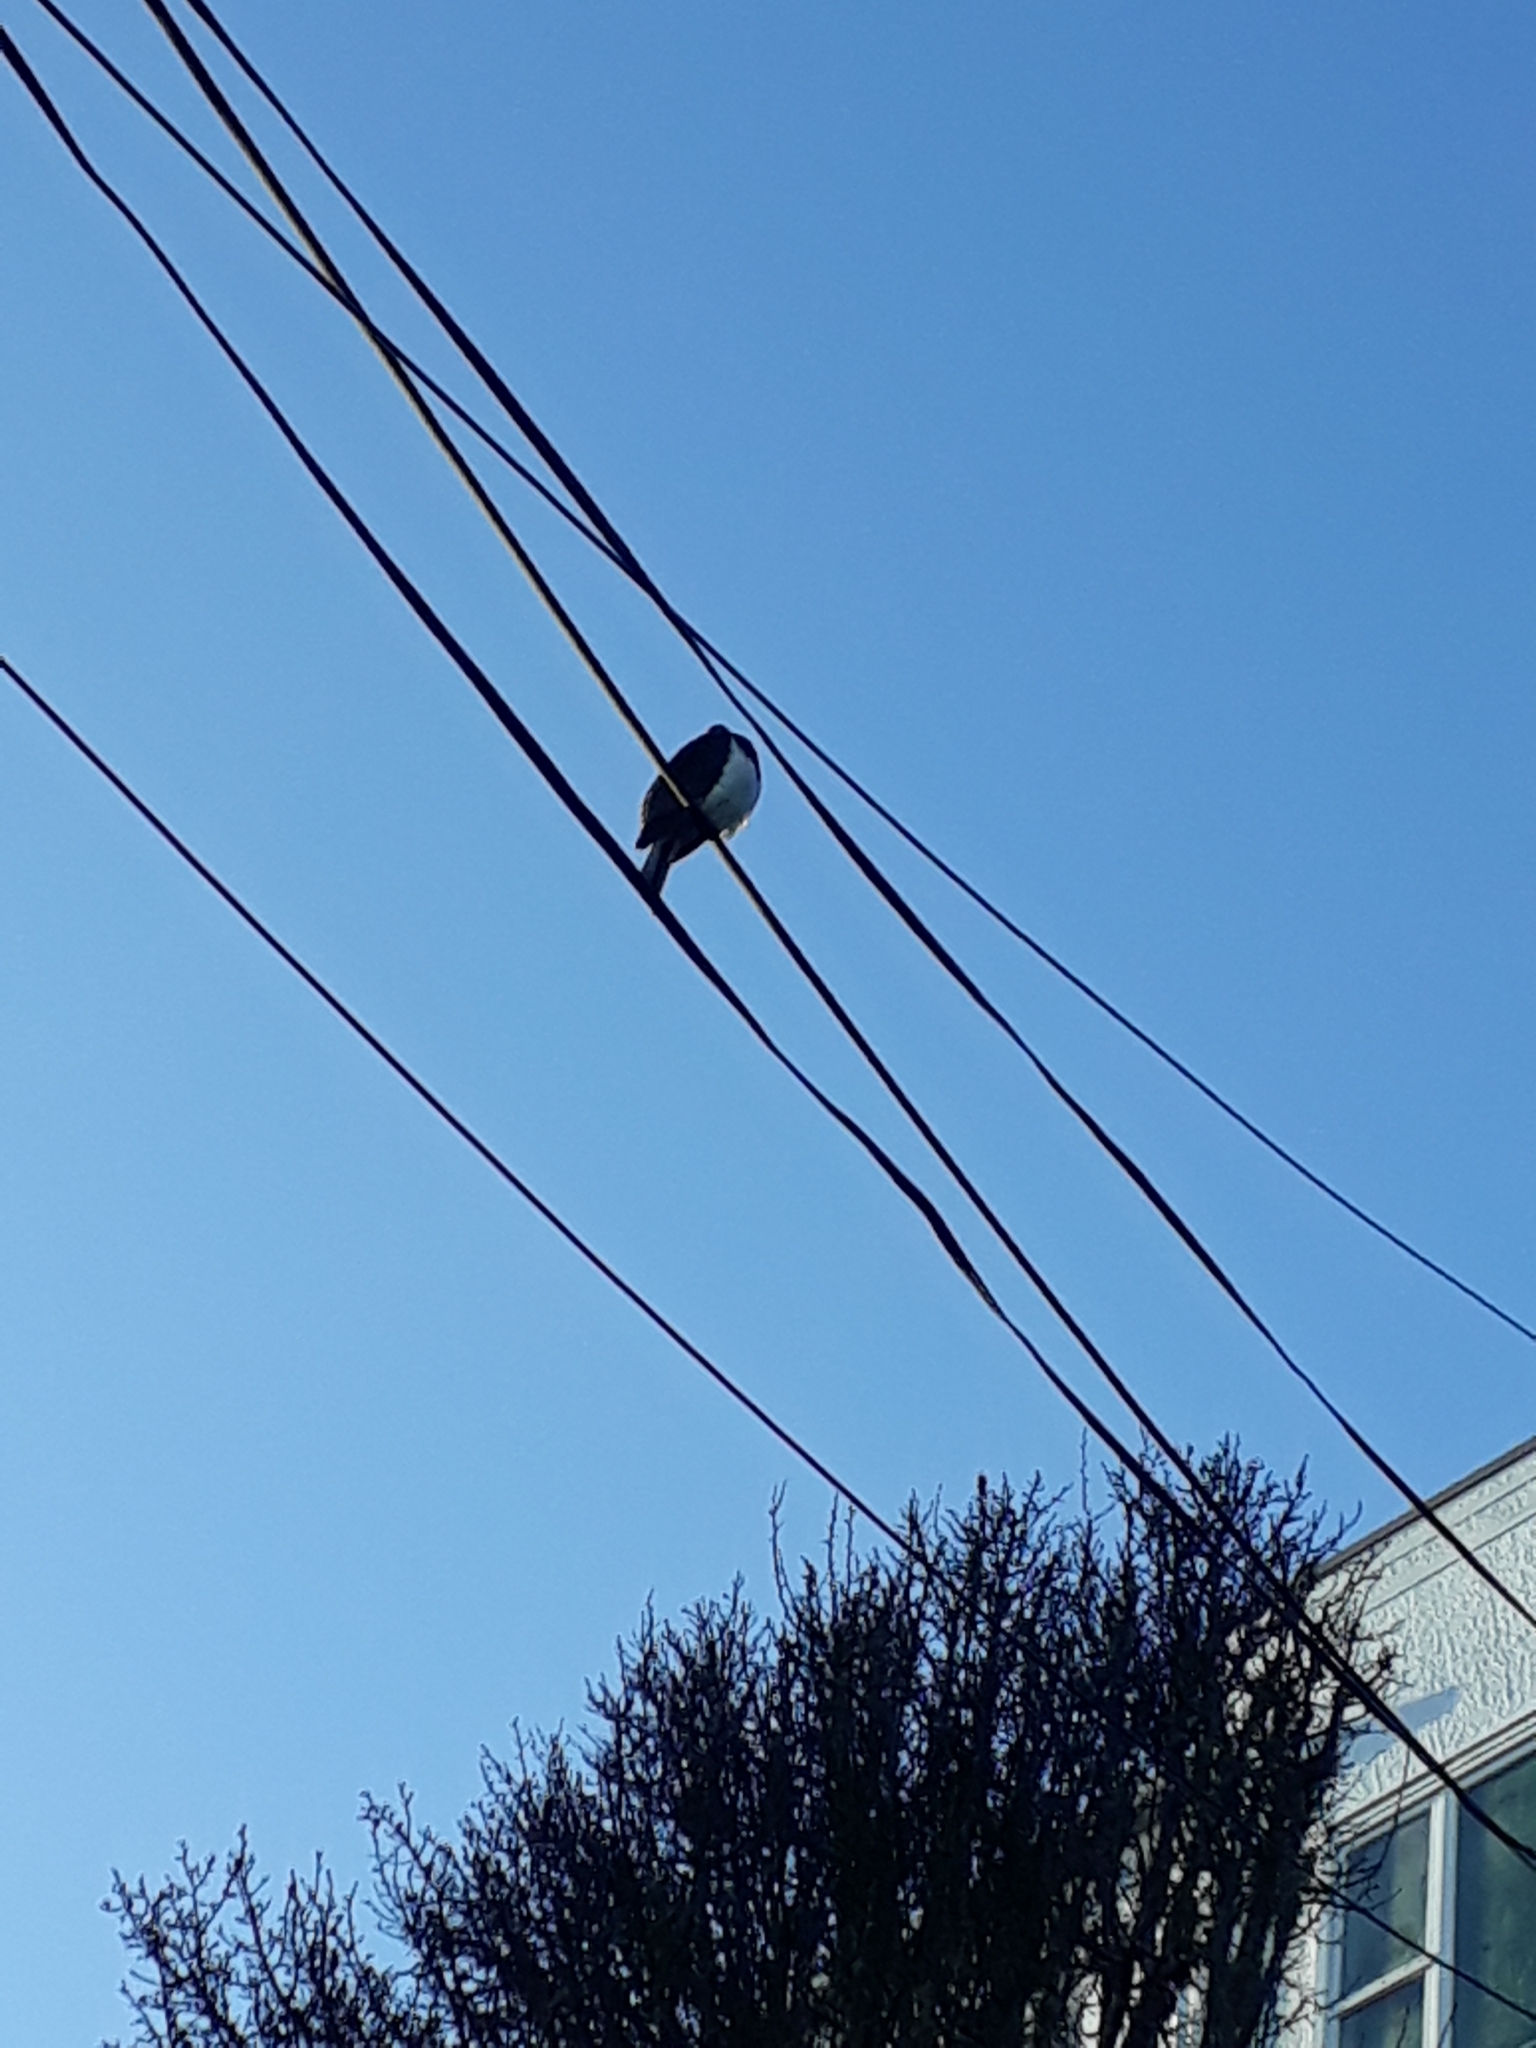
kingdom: Animalia
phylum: Chordata
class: Aves
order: Columbiformes
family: Columbidae
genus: Hemiphaga
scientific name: Hemiphaga novaeseelandiae
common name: New zealand pigeon
